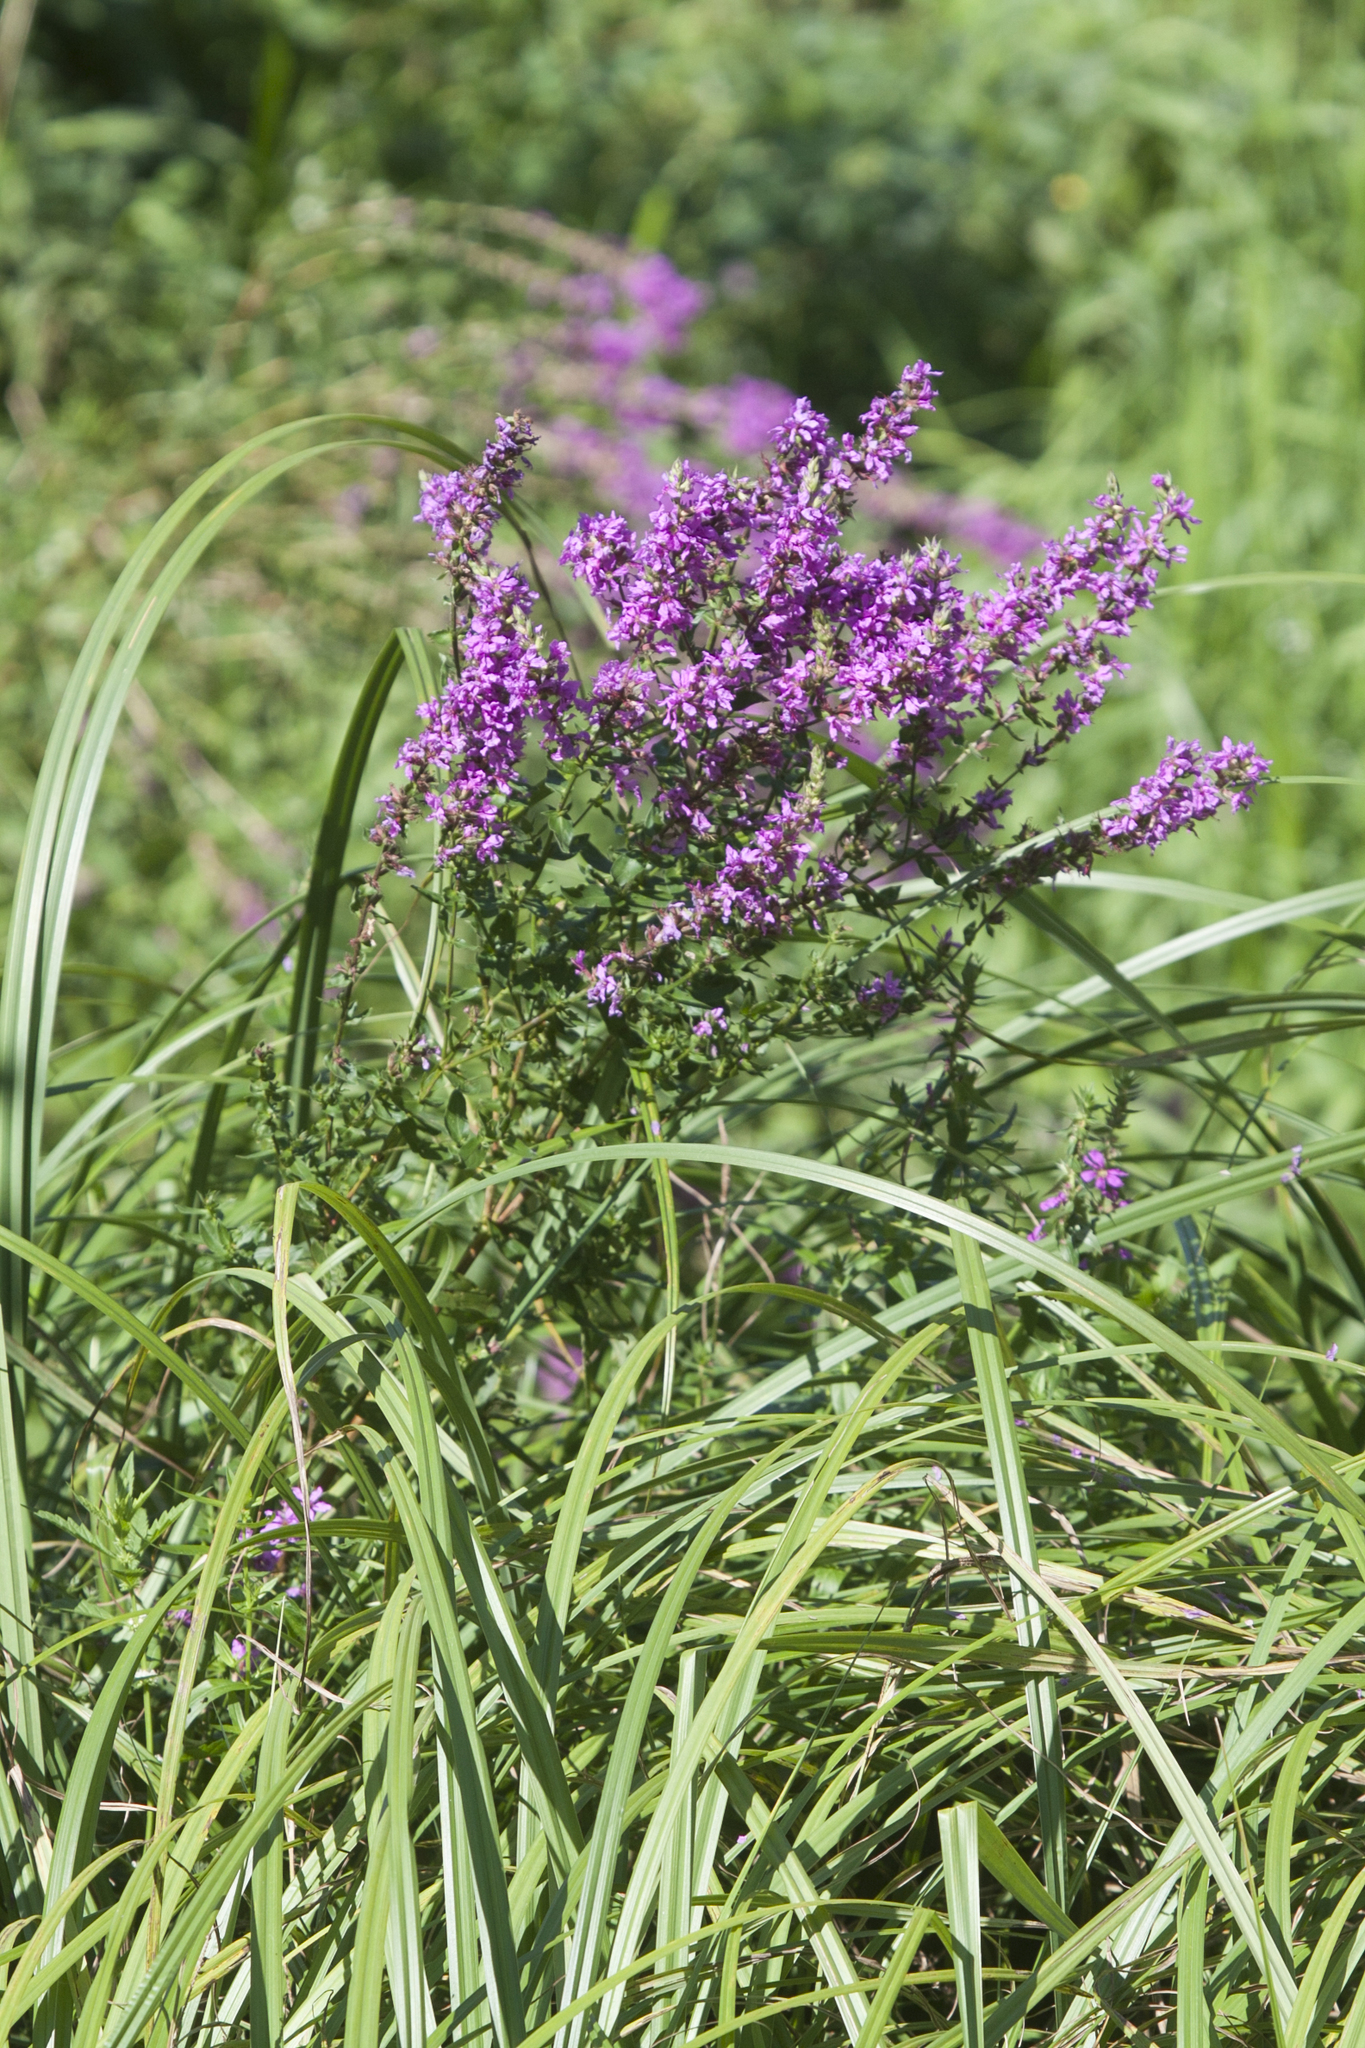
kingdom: Plantae
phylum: Tracheophyta
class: Magnoliopsida
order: Myrtales
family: Lythraceae
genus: Lythrum
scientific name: Lythrum salicaria
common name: Purple loosestrife
